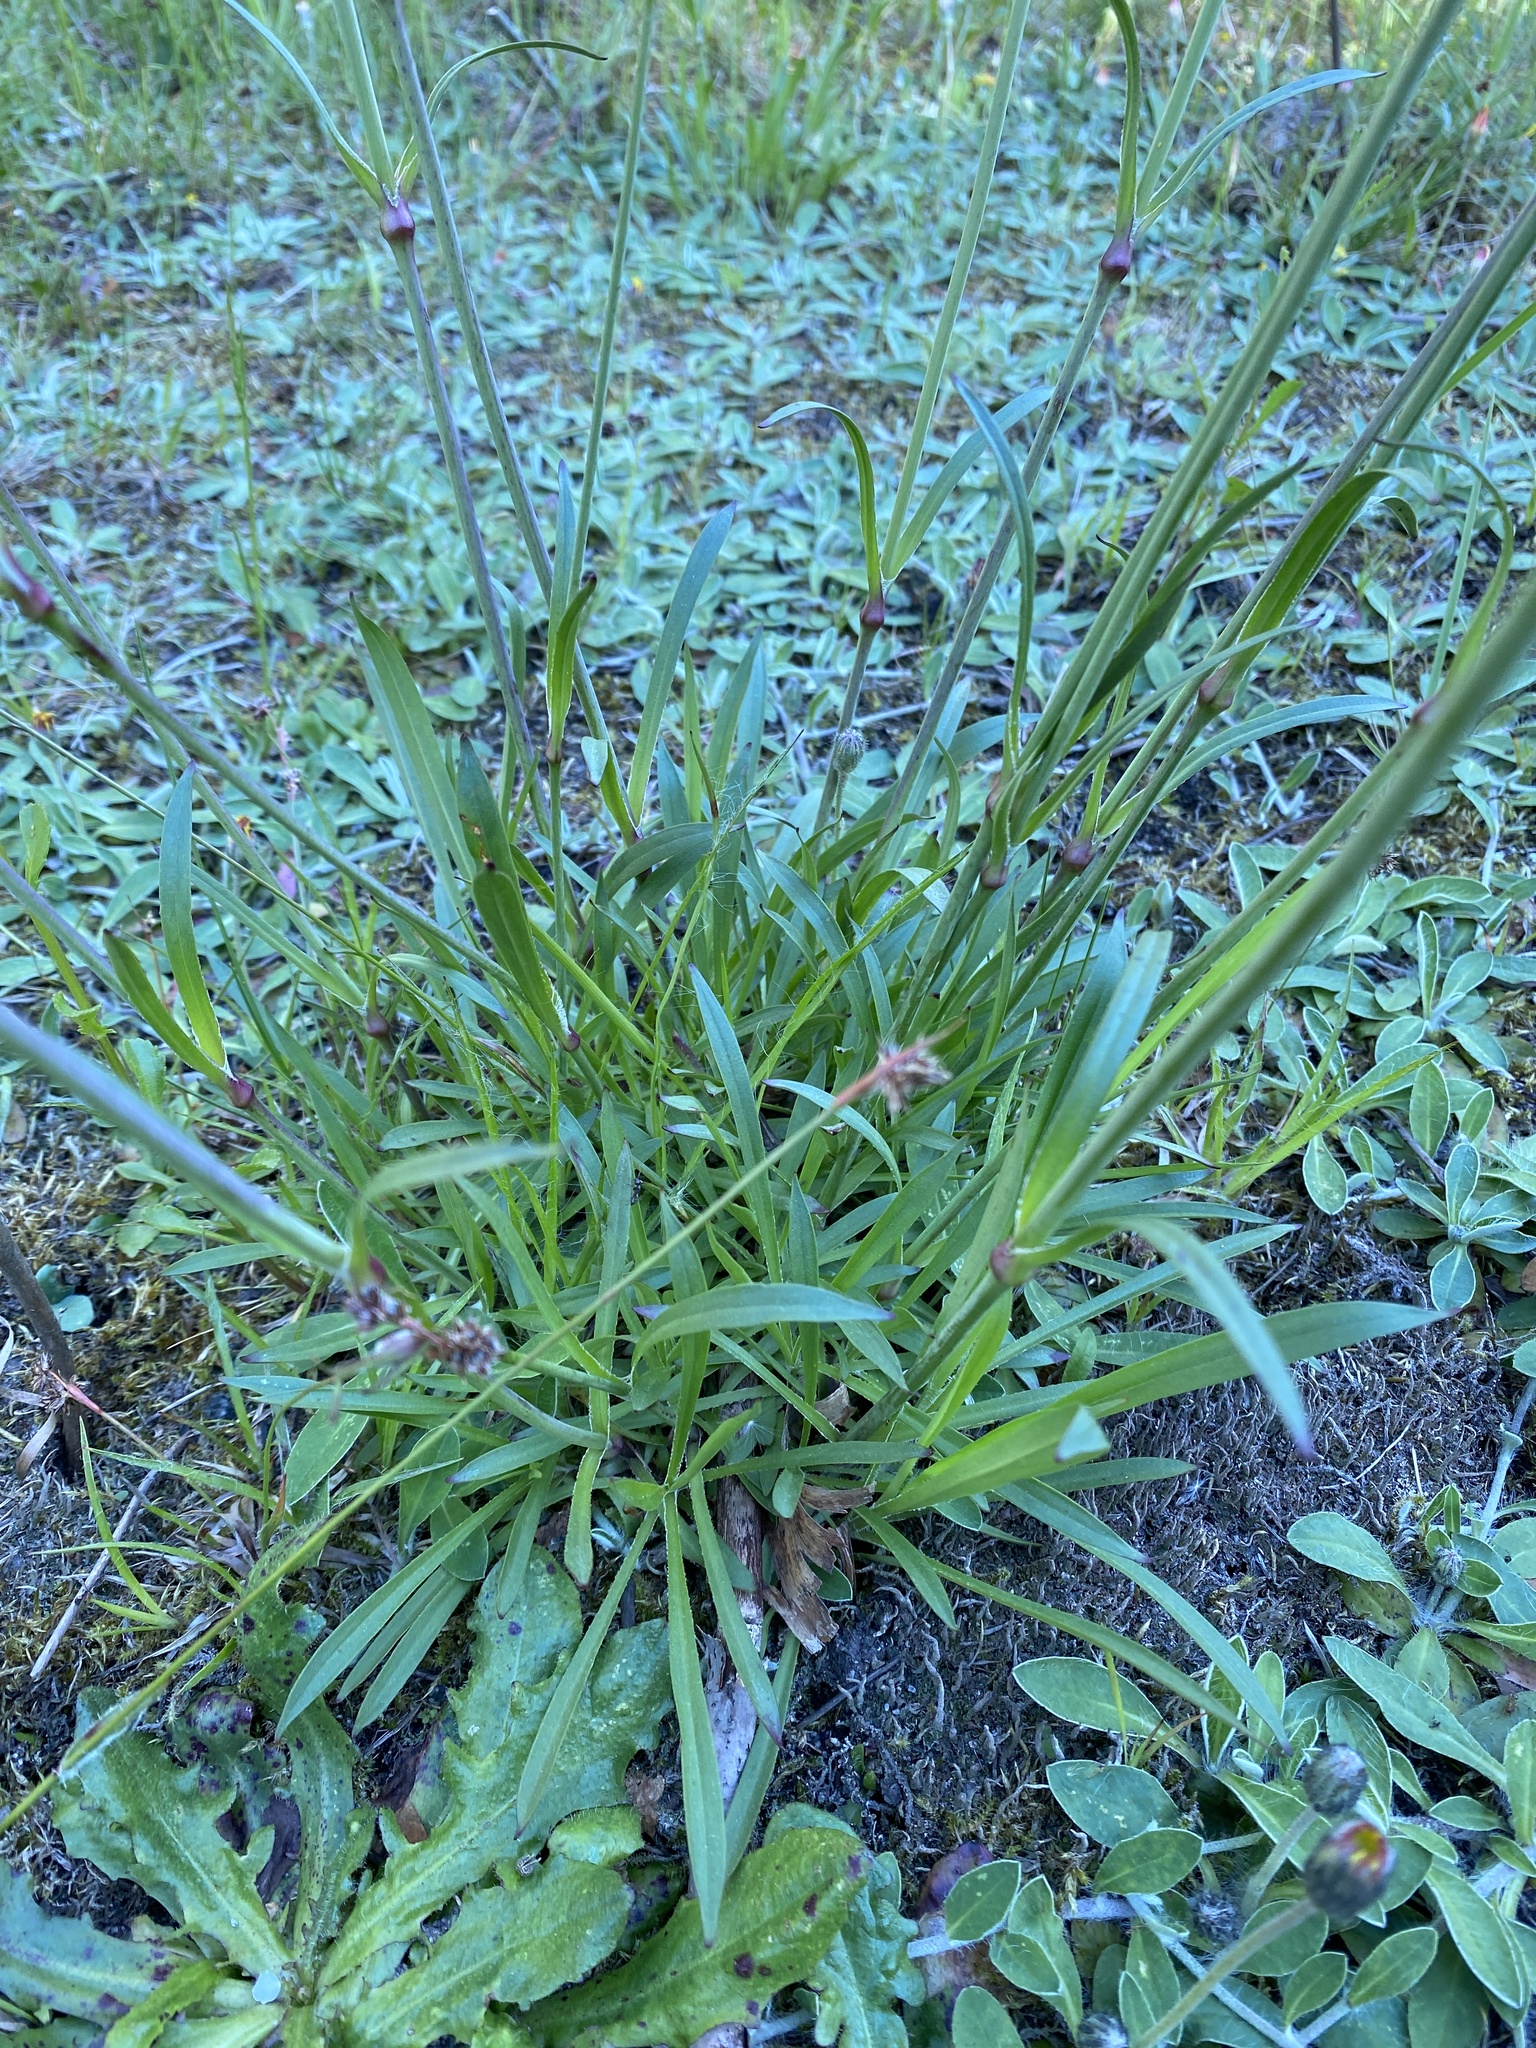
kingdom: Plantae
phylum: Tracheophyta
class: Magnoliopsida
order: Caryophyllales
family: Caryophyllaceae
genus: Viscaria
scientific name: Viscaria vulgaris
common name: Clammy campion
